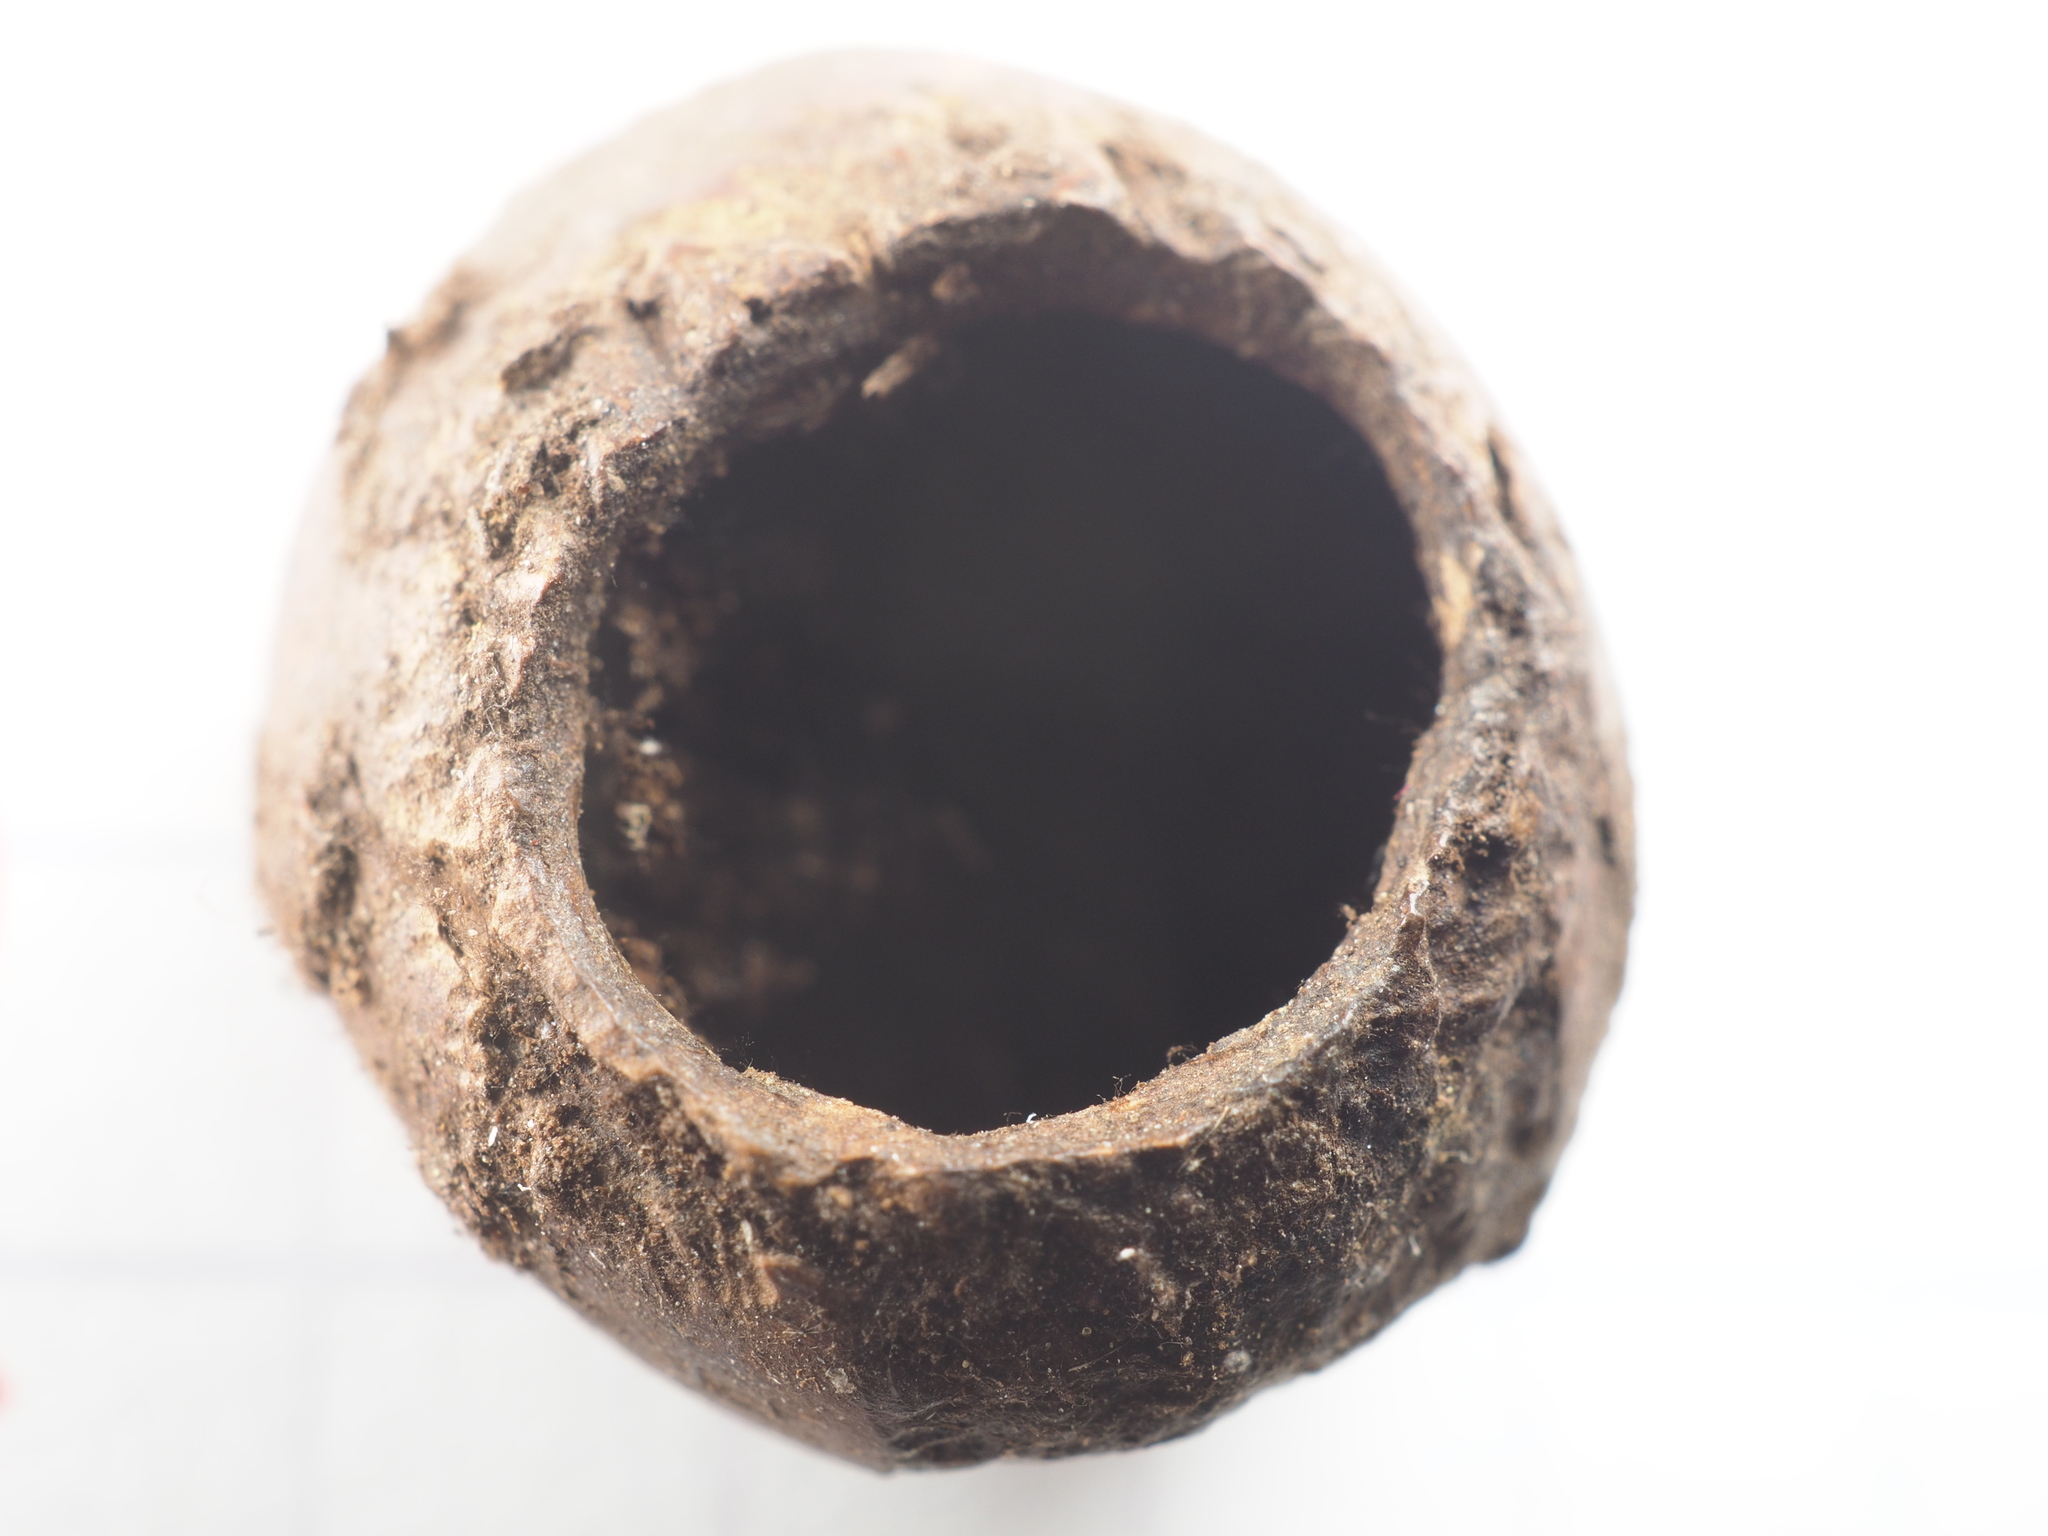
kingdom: Animalia
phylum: Chordata
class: Mammalia
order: Rodentia
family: Gliridae
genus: Muscardinus
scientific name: Muscardinus avellanarius
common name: Hazel dormouse
